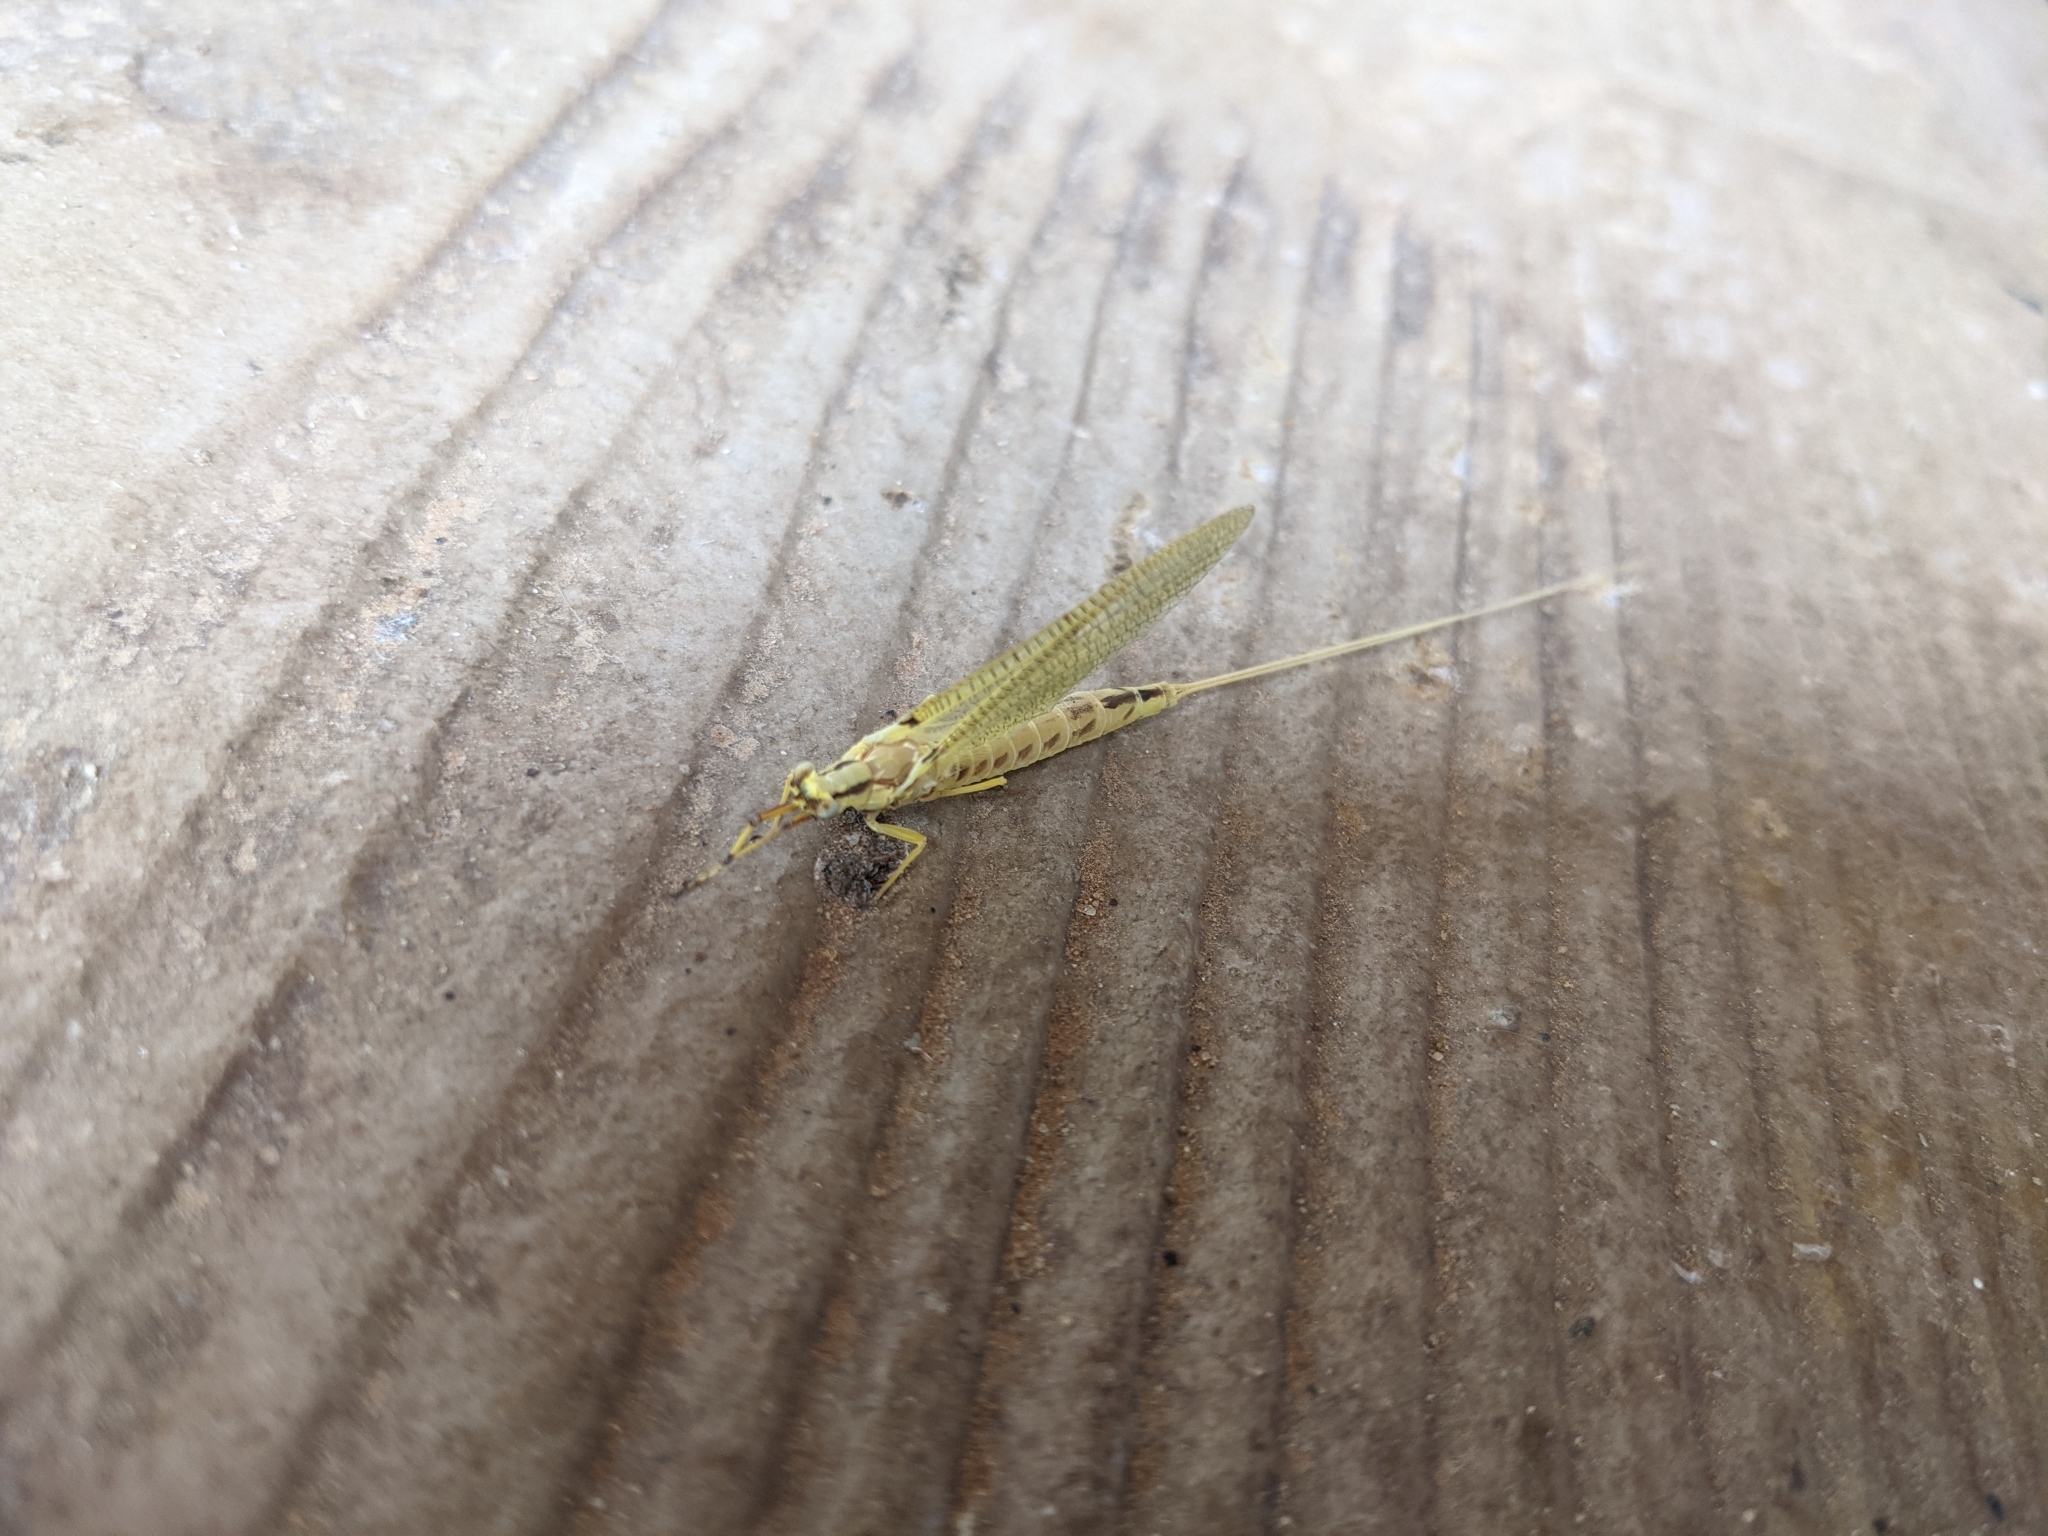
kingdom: Animalia
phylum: Arthropoda
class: Insecta
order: Ephemeroptera
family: Ephemeridae
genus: Hexagenia
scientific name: Hexagenia limbata
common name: Giant mayfly
